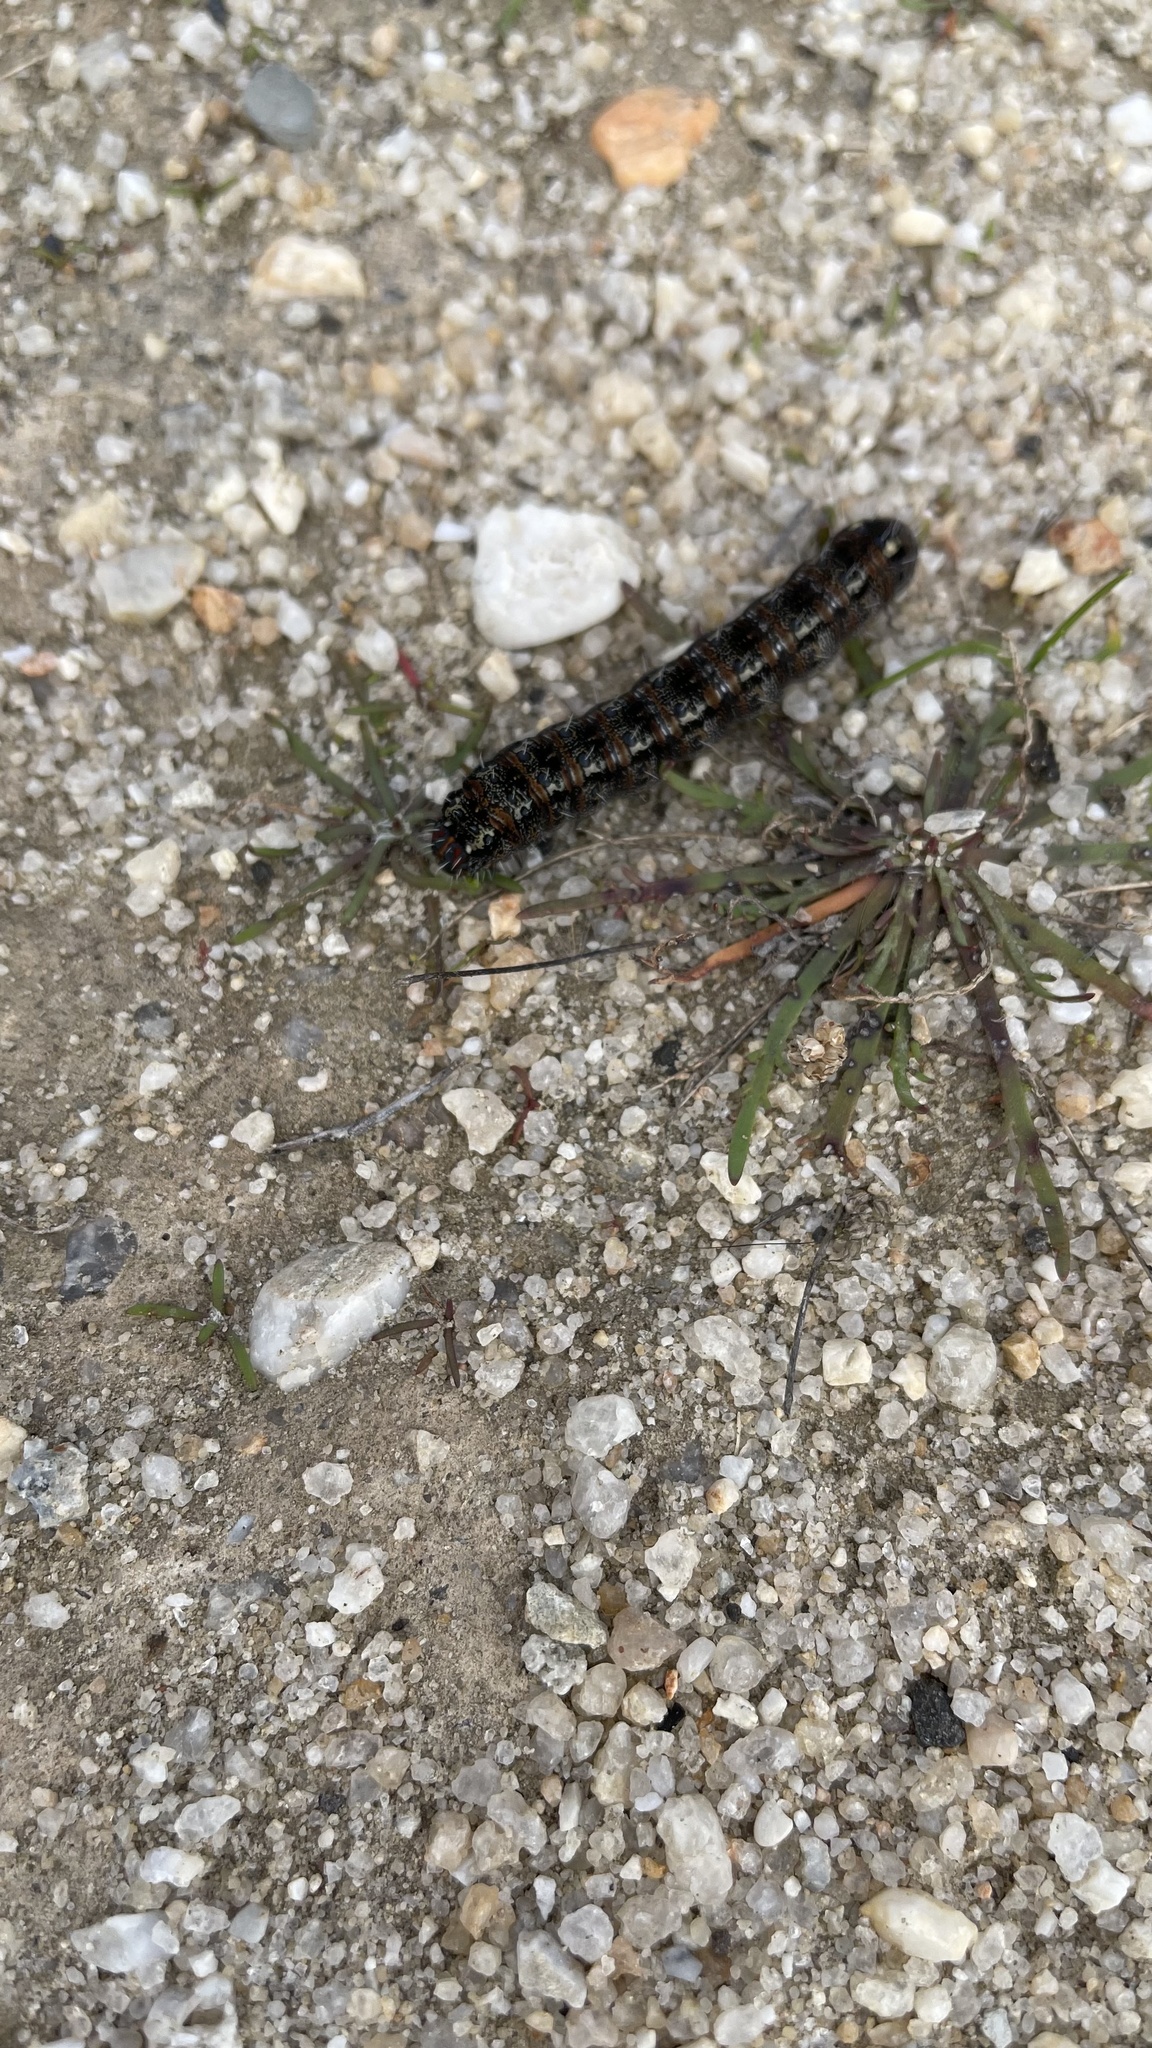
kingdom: Animalia
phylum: Arthropoda
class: Insecta
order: Lepidoptera
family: Noctuidae
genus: Apina
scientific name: Apina callisto
